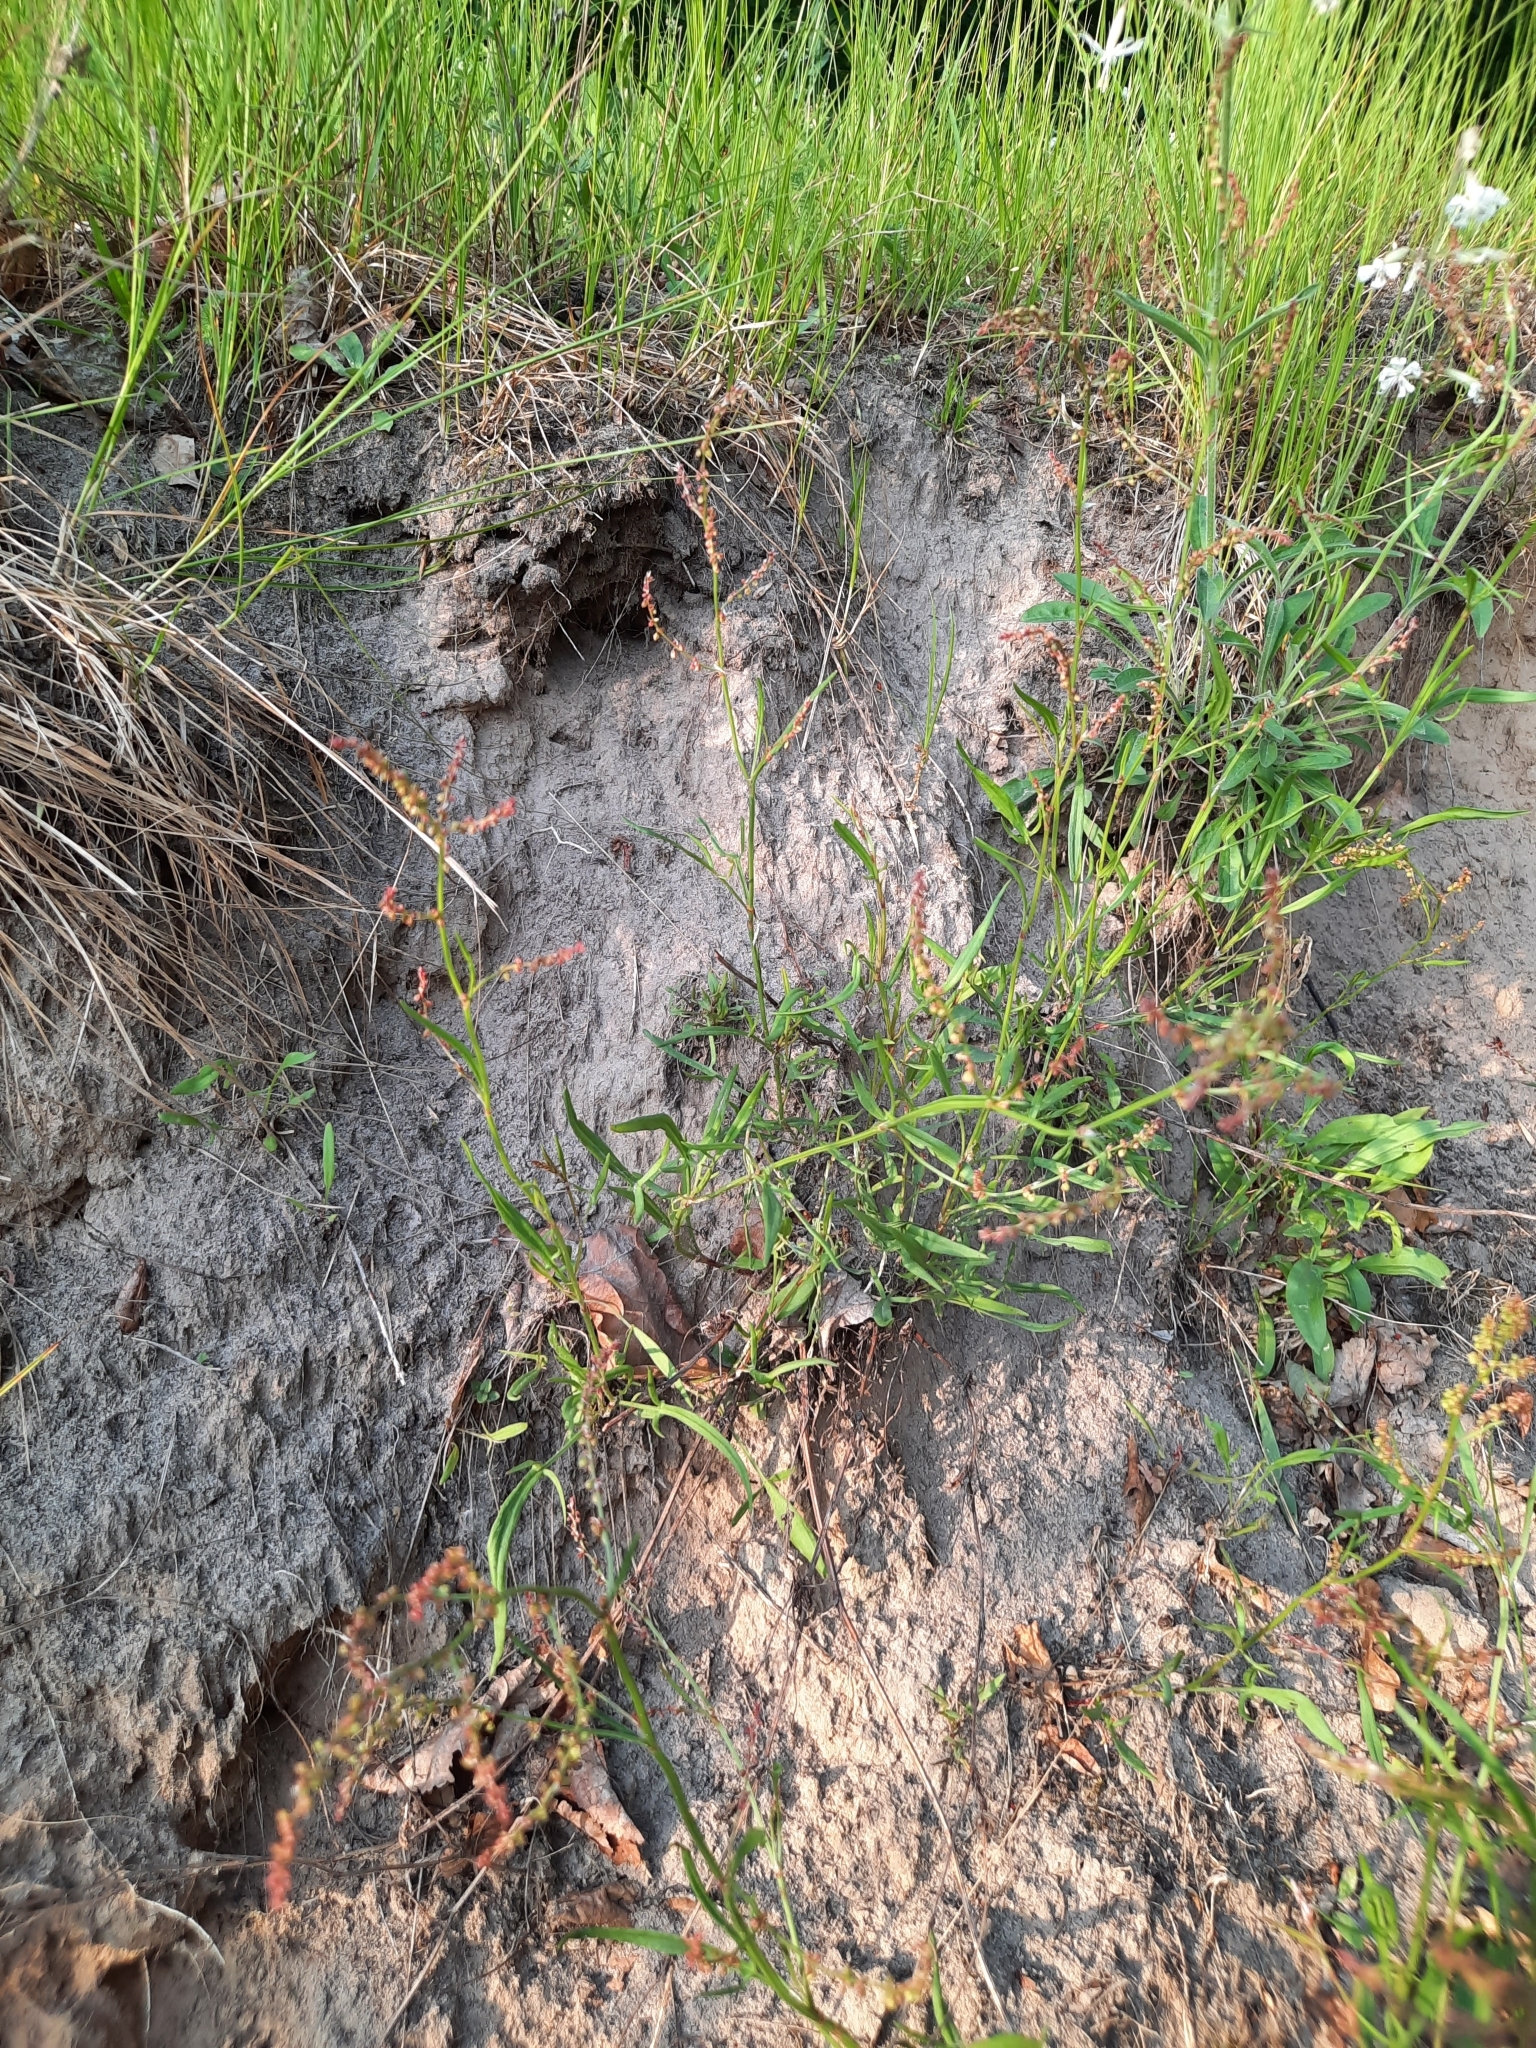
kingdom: Plantae
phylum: Tracheophyta
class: Magnoliopsida
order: Caryophyllales
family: Polygonaceae
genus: Rumex
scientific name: Rumex acetosella
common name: Common sheep sorrel
